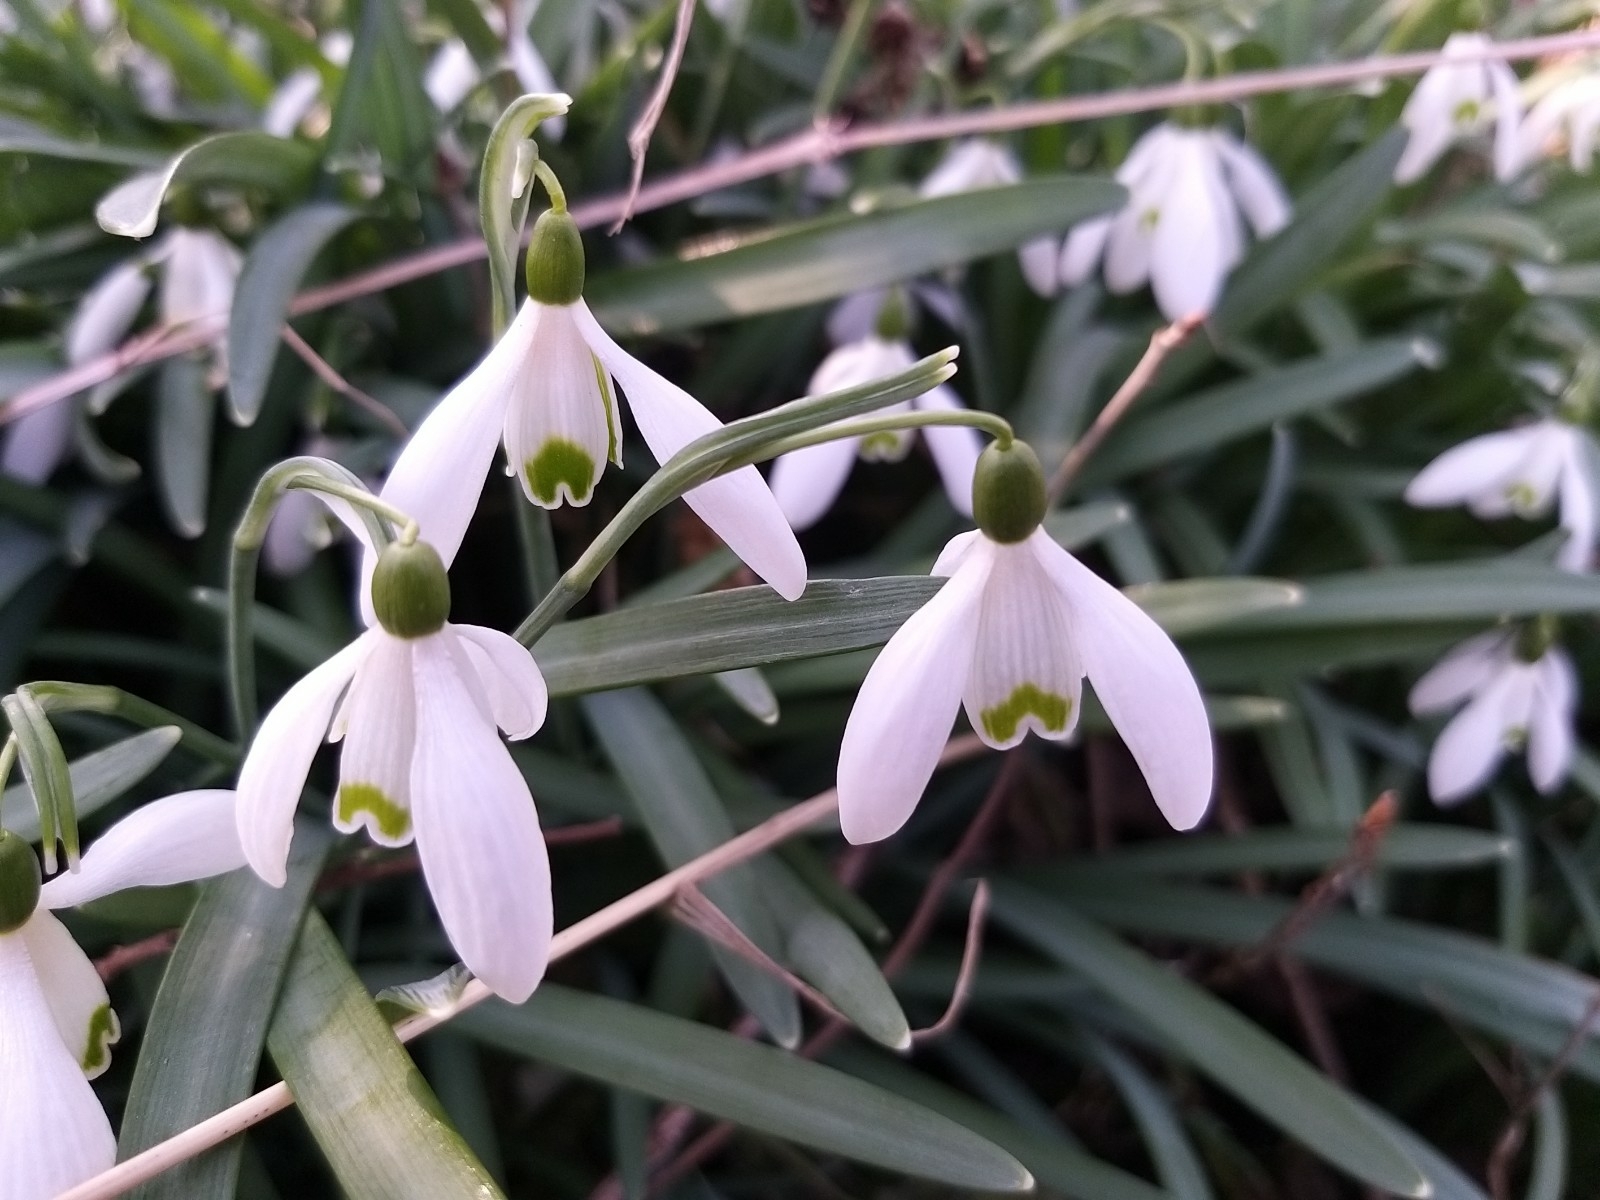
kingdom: Plantae
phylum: Tracheophyta
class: Liliopsida
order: Asparagales
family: Amaryllidaceae
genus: Galanthus
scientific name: Galanthus nivalis
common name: Snowdrop
